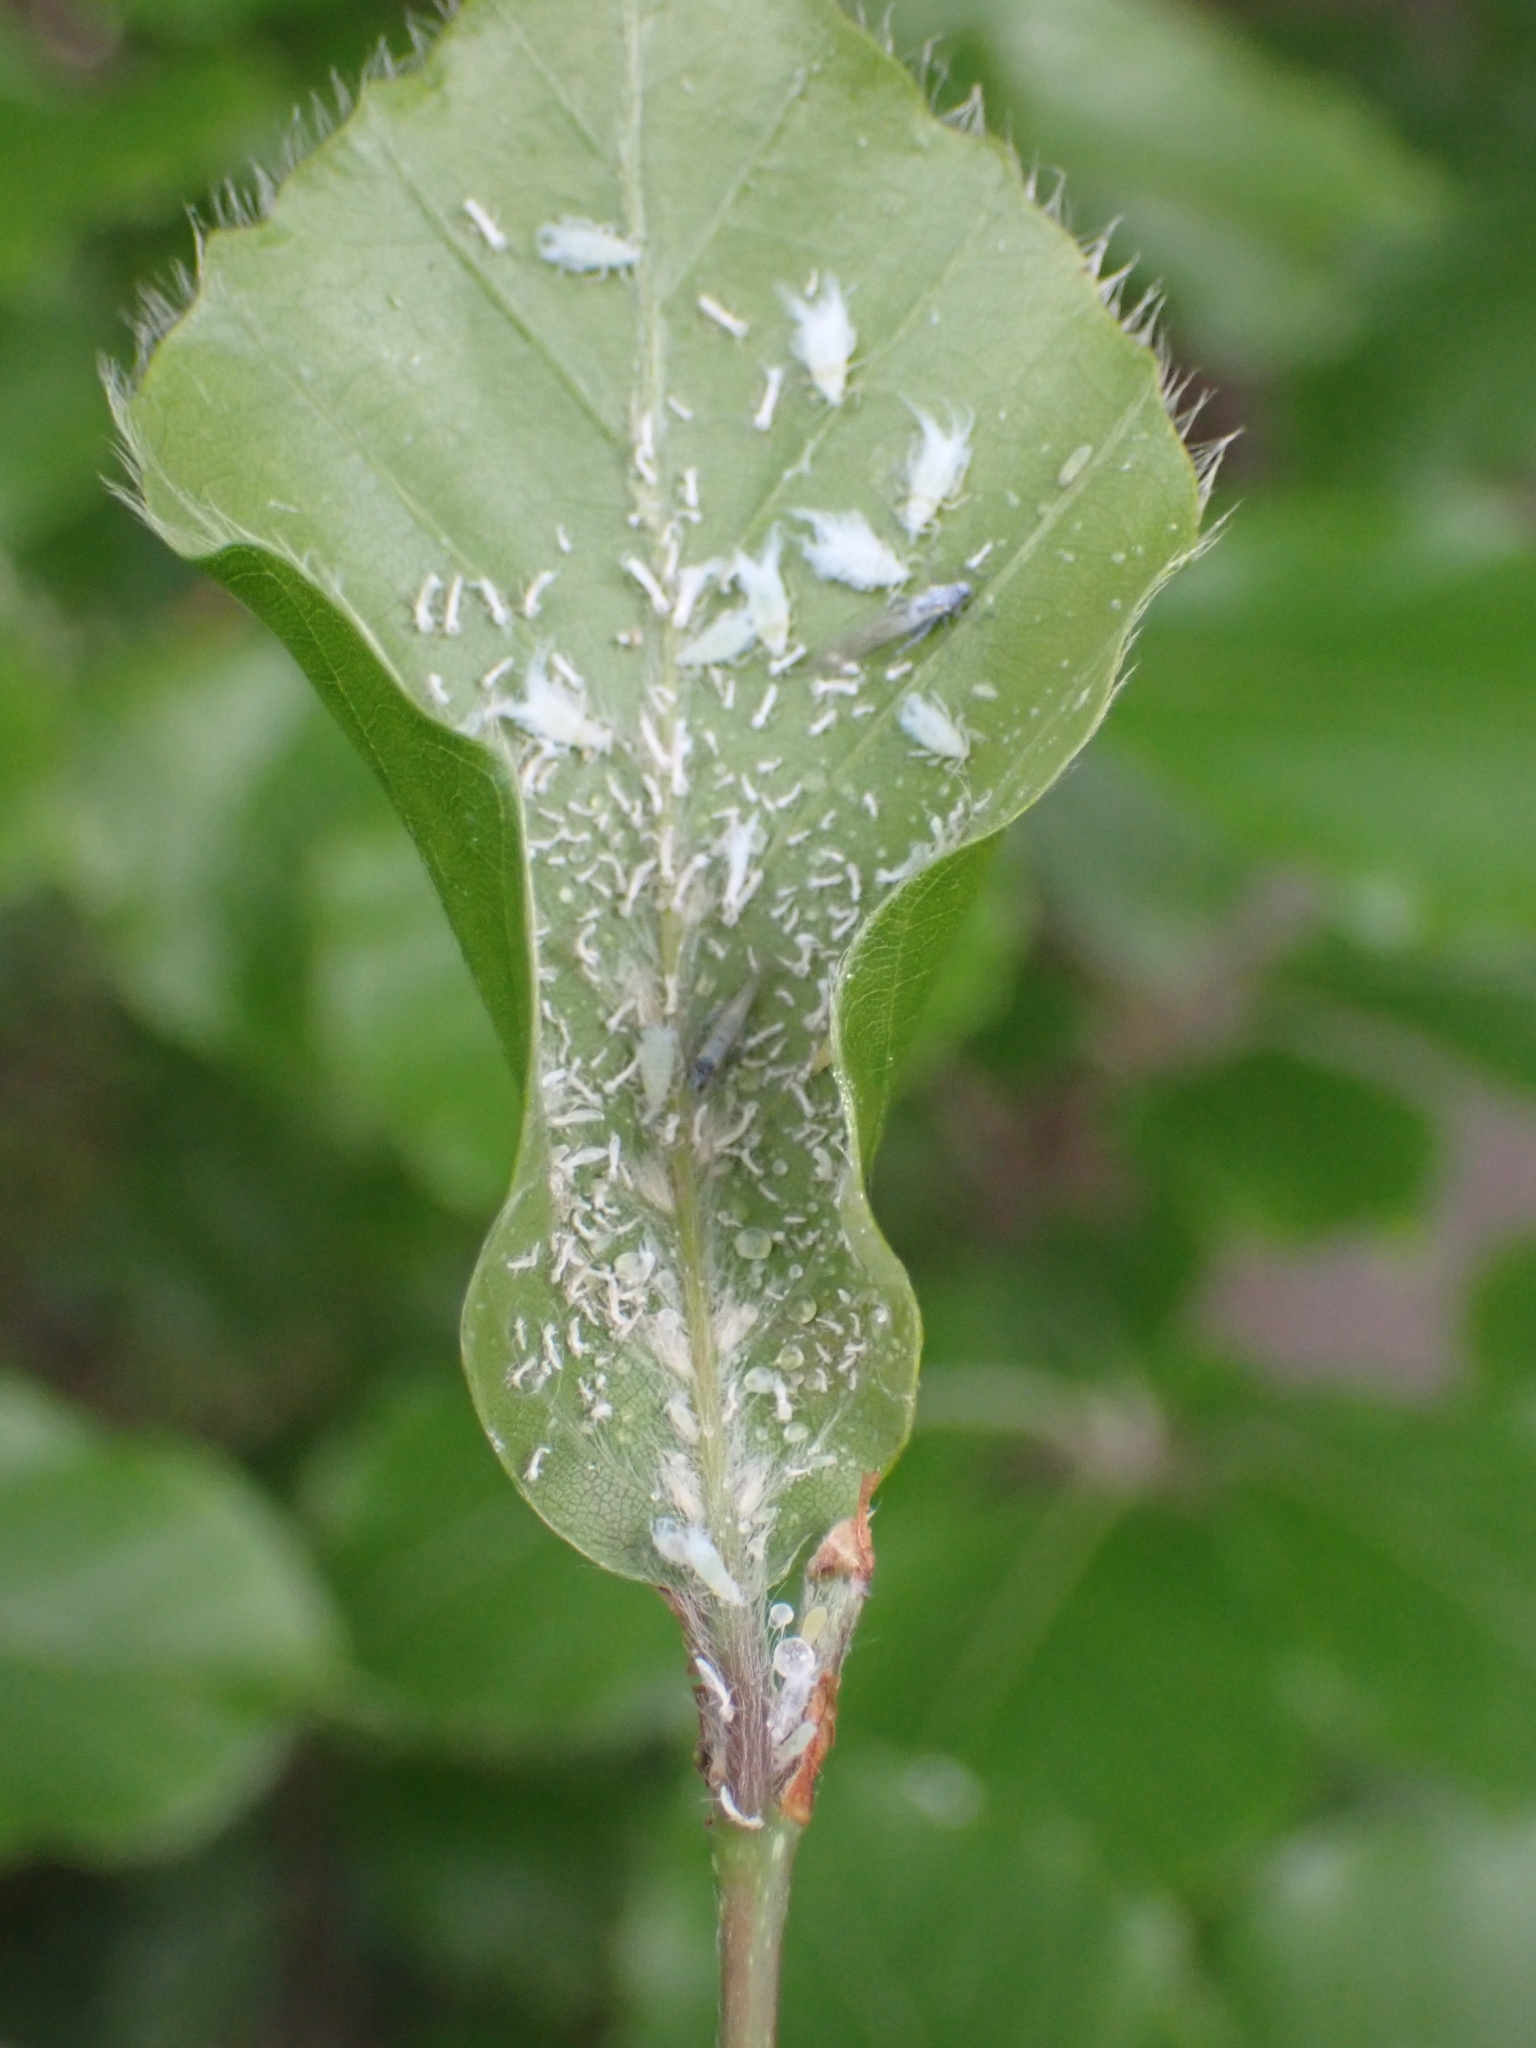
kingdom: Animalia
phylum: Arthropoda
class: Insecta
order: Hemiptera
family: Aphididae
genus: Phyllaphis
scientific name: Phyllaphis fagi
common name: Beech aphid
